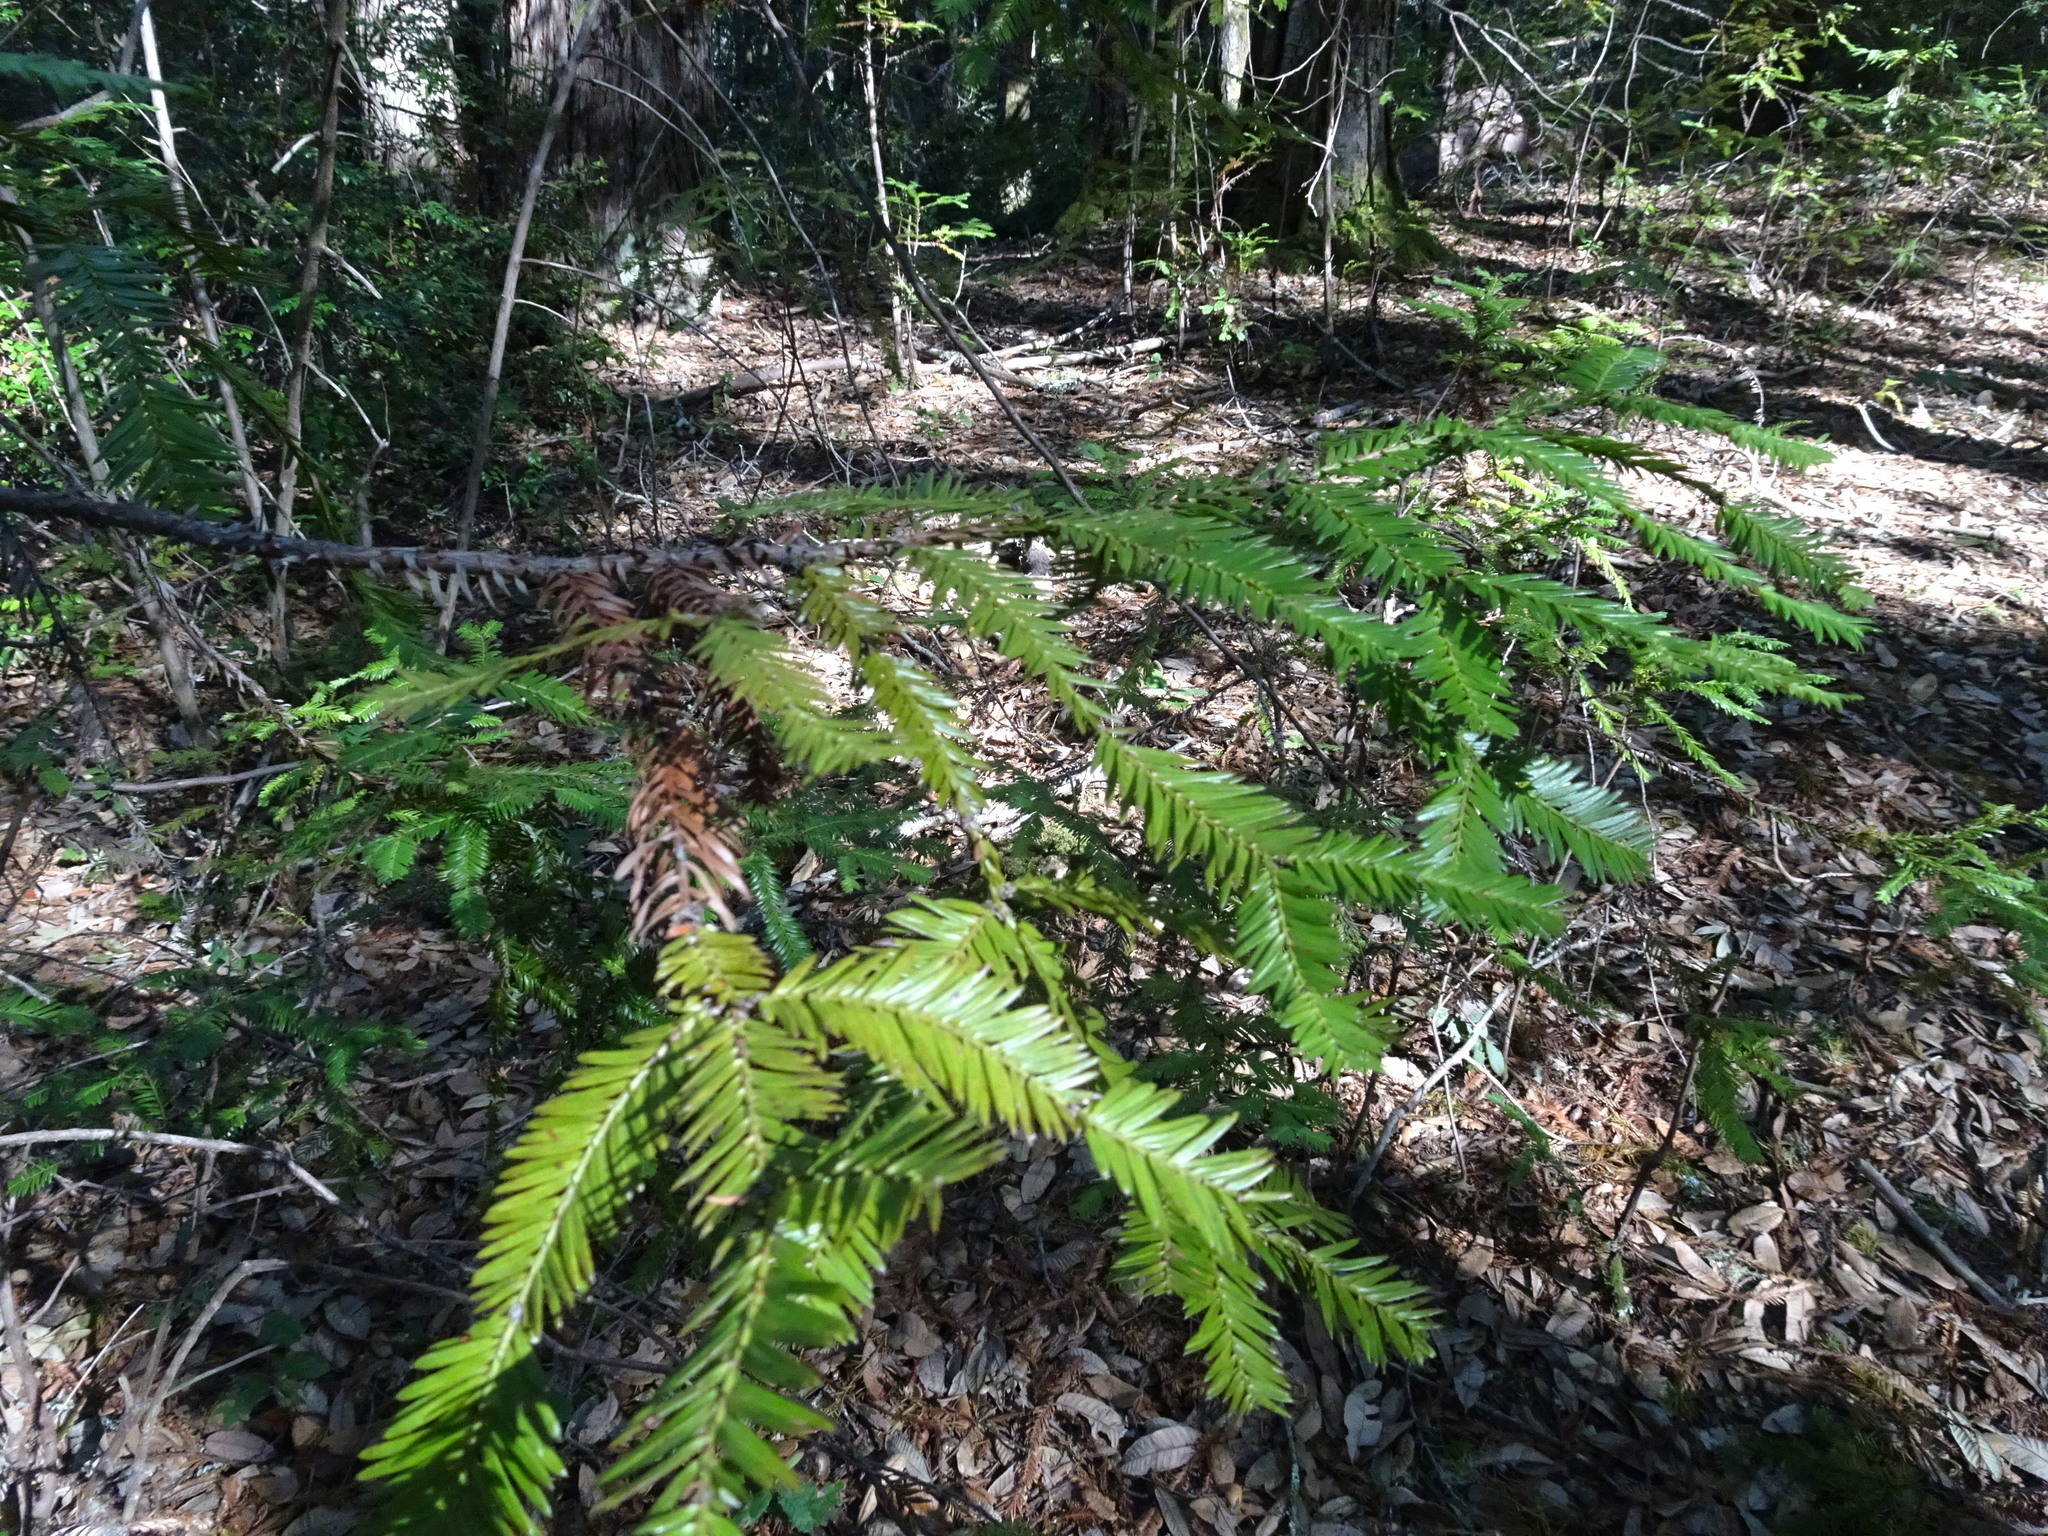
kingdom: Plantae
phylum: Tracheophyta
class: Pinopsida
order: Pinales
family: Cupressaceae
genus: Sequoia
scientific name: Sequoia sempervirens
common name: Coast redwood
